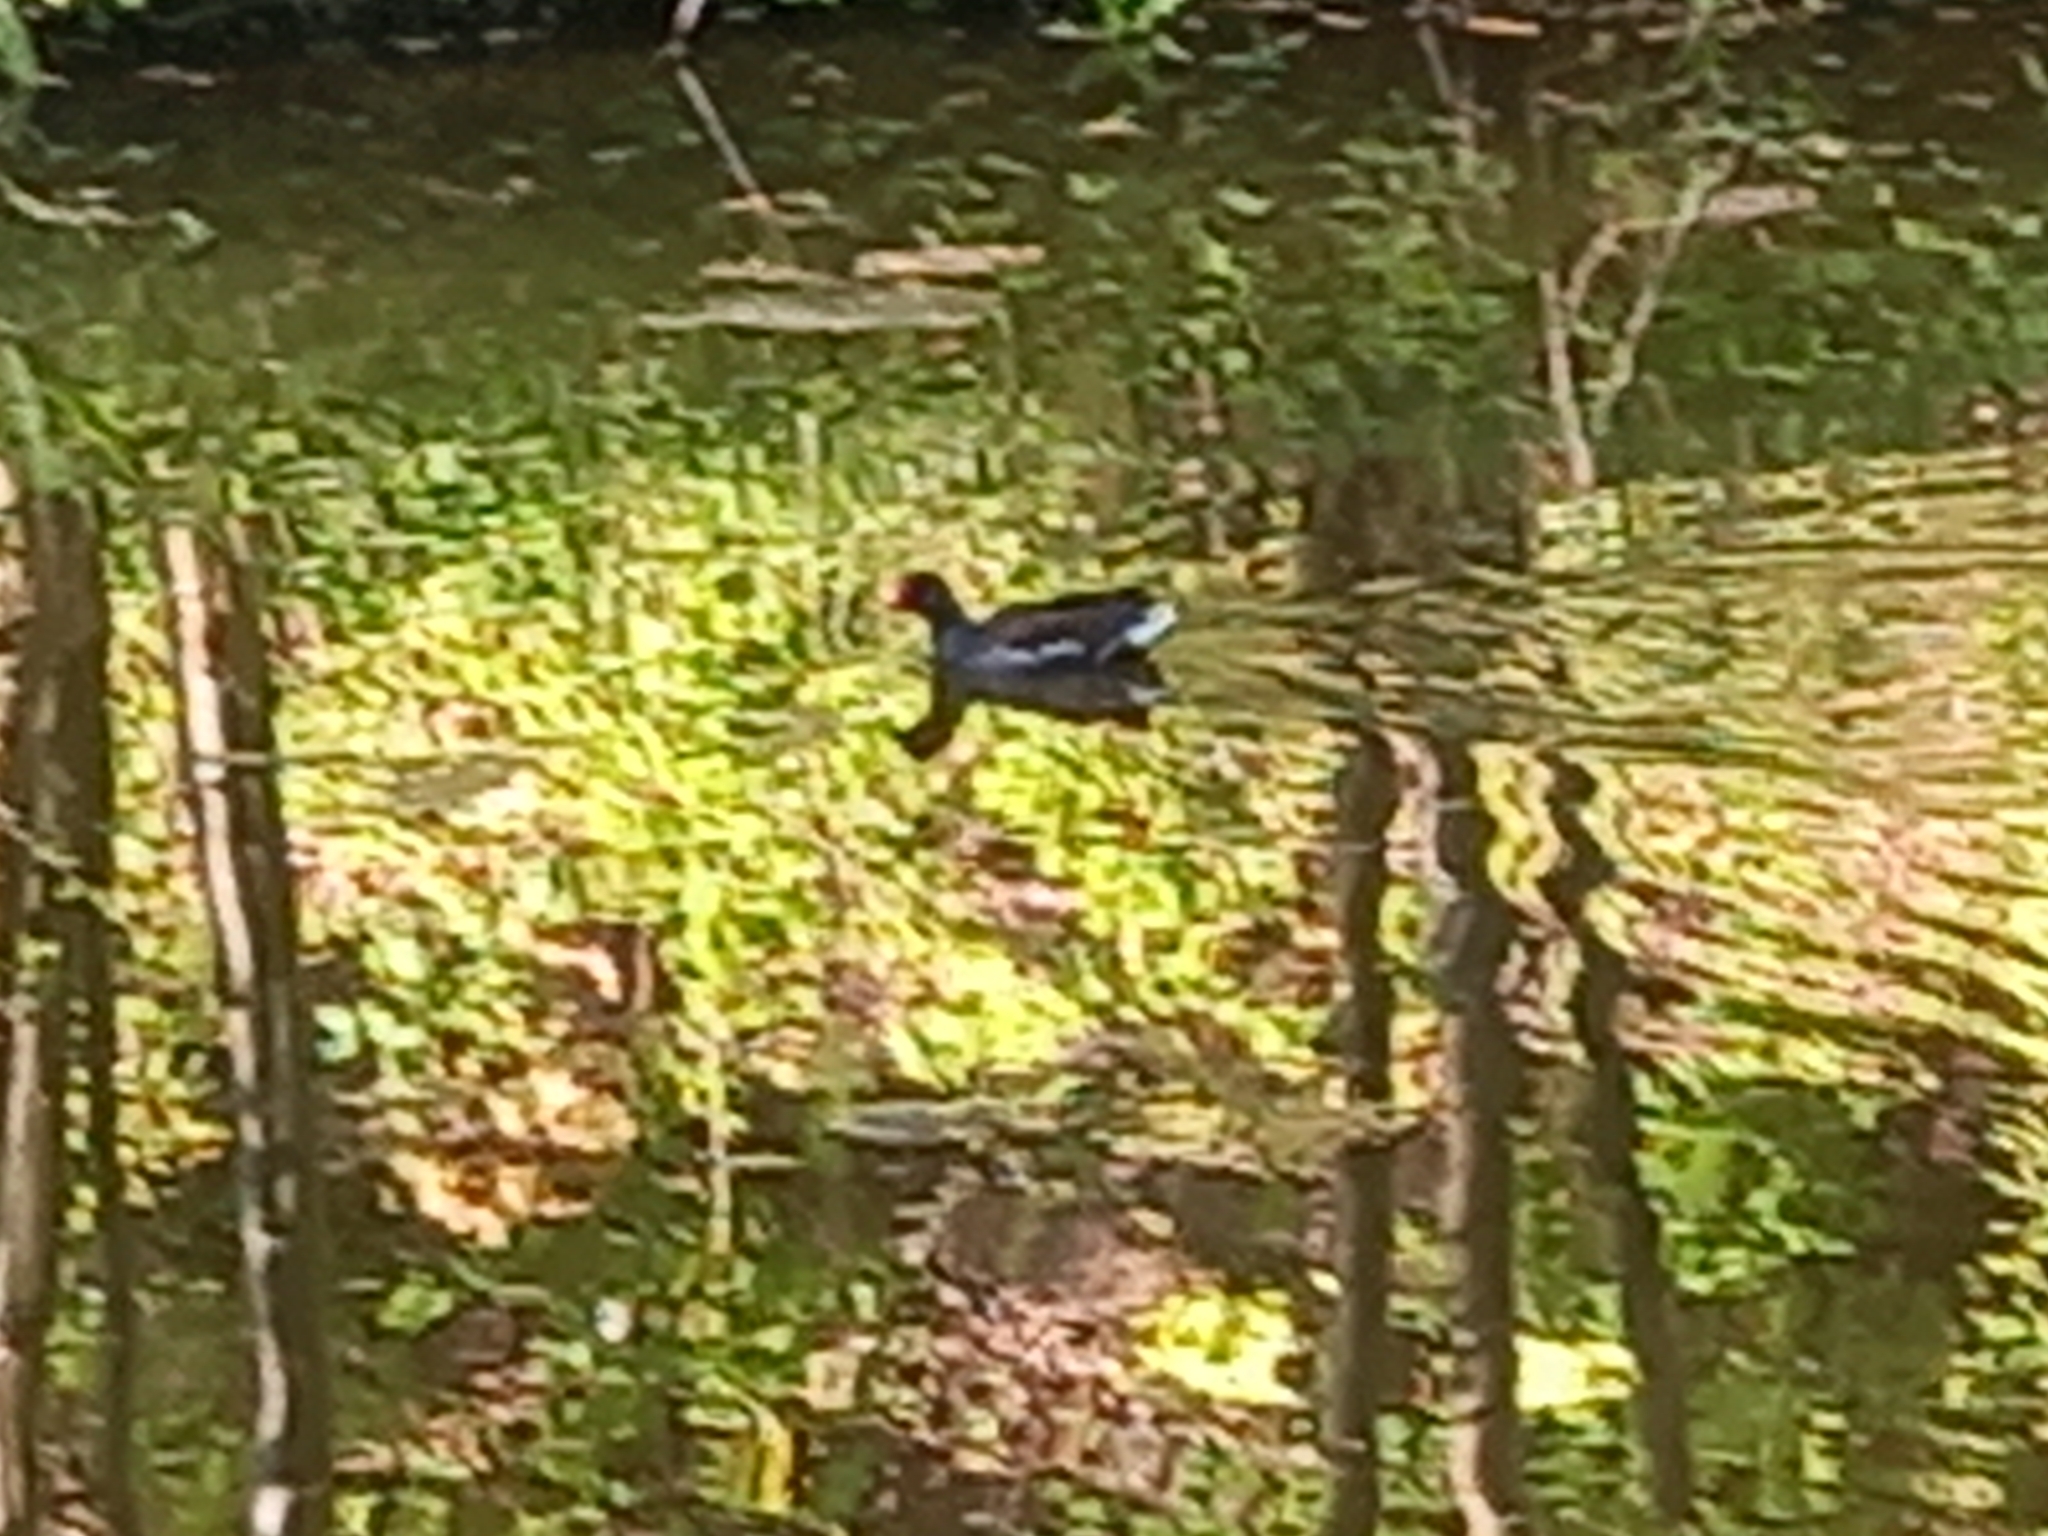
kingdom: Animalia
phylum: Chordata
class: Aves
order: Gruiformes
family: Rallidae
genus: Gallinula
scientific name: Gallinula chloropus
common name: Common moorhen
